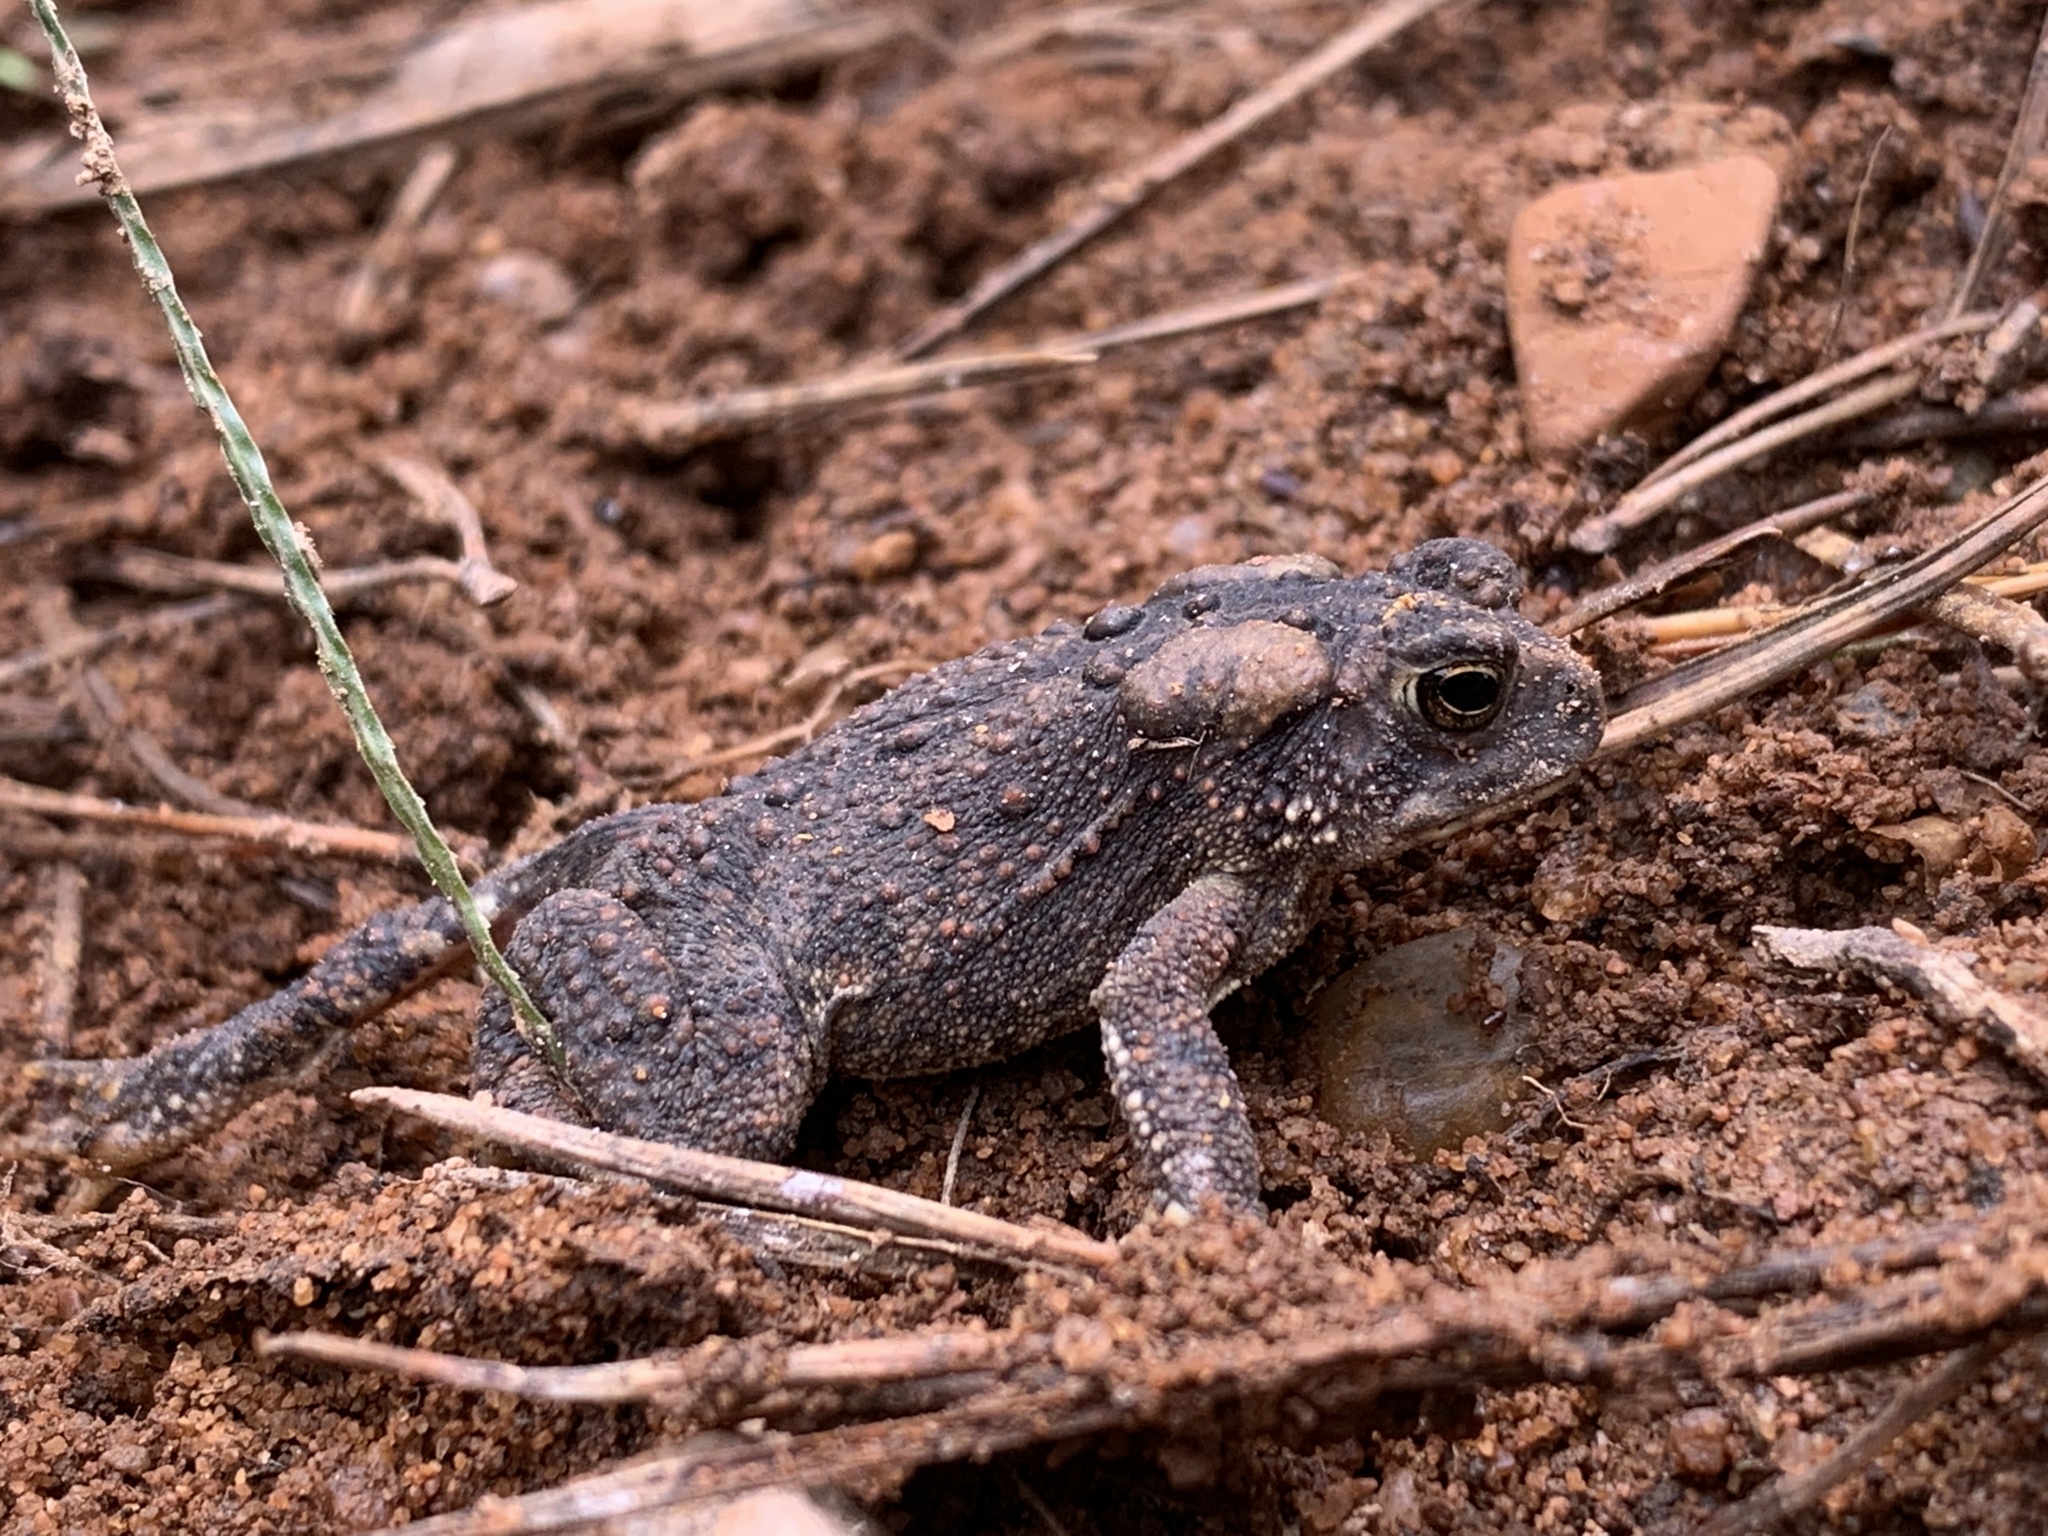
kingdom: Animalia
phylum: Chordata
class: Amphibia
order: Anura
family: Bufonidae
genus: Anaxyrus
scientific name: Anaxyrus americanus
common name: American toad
